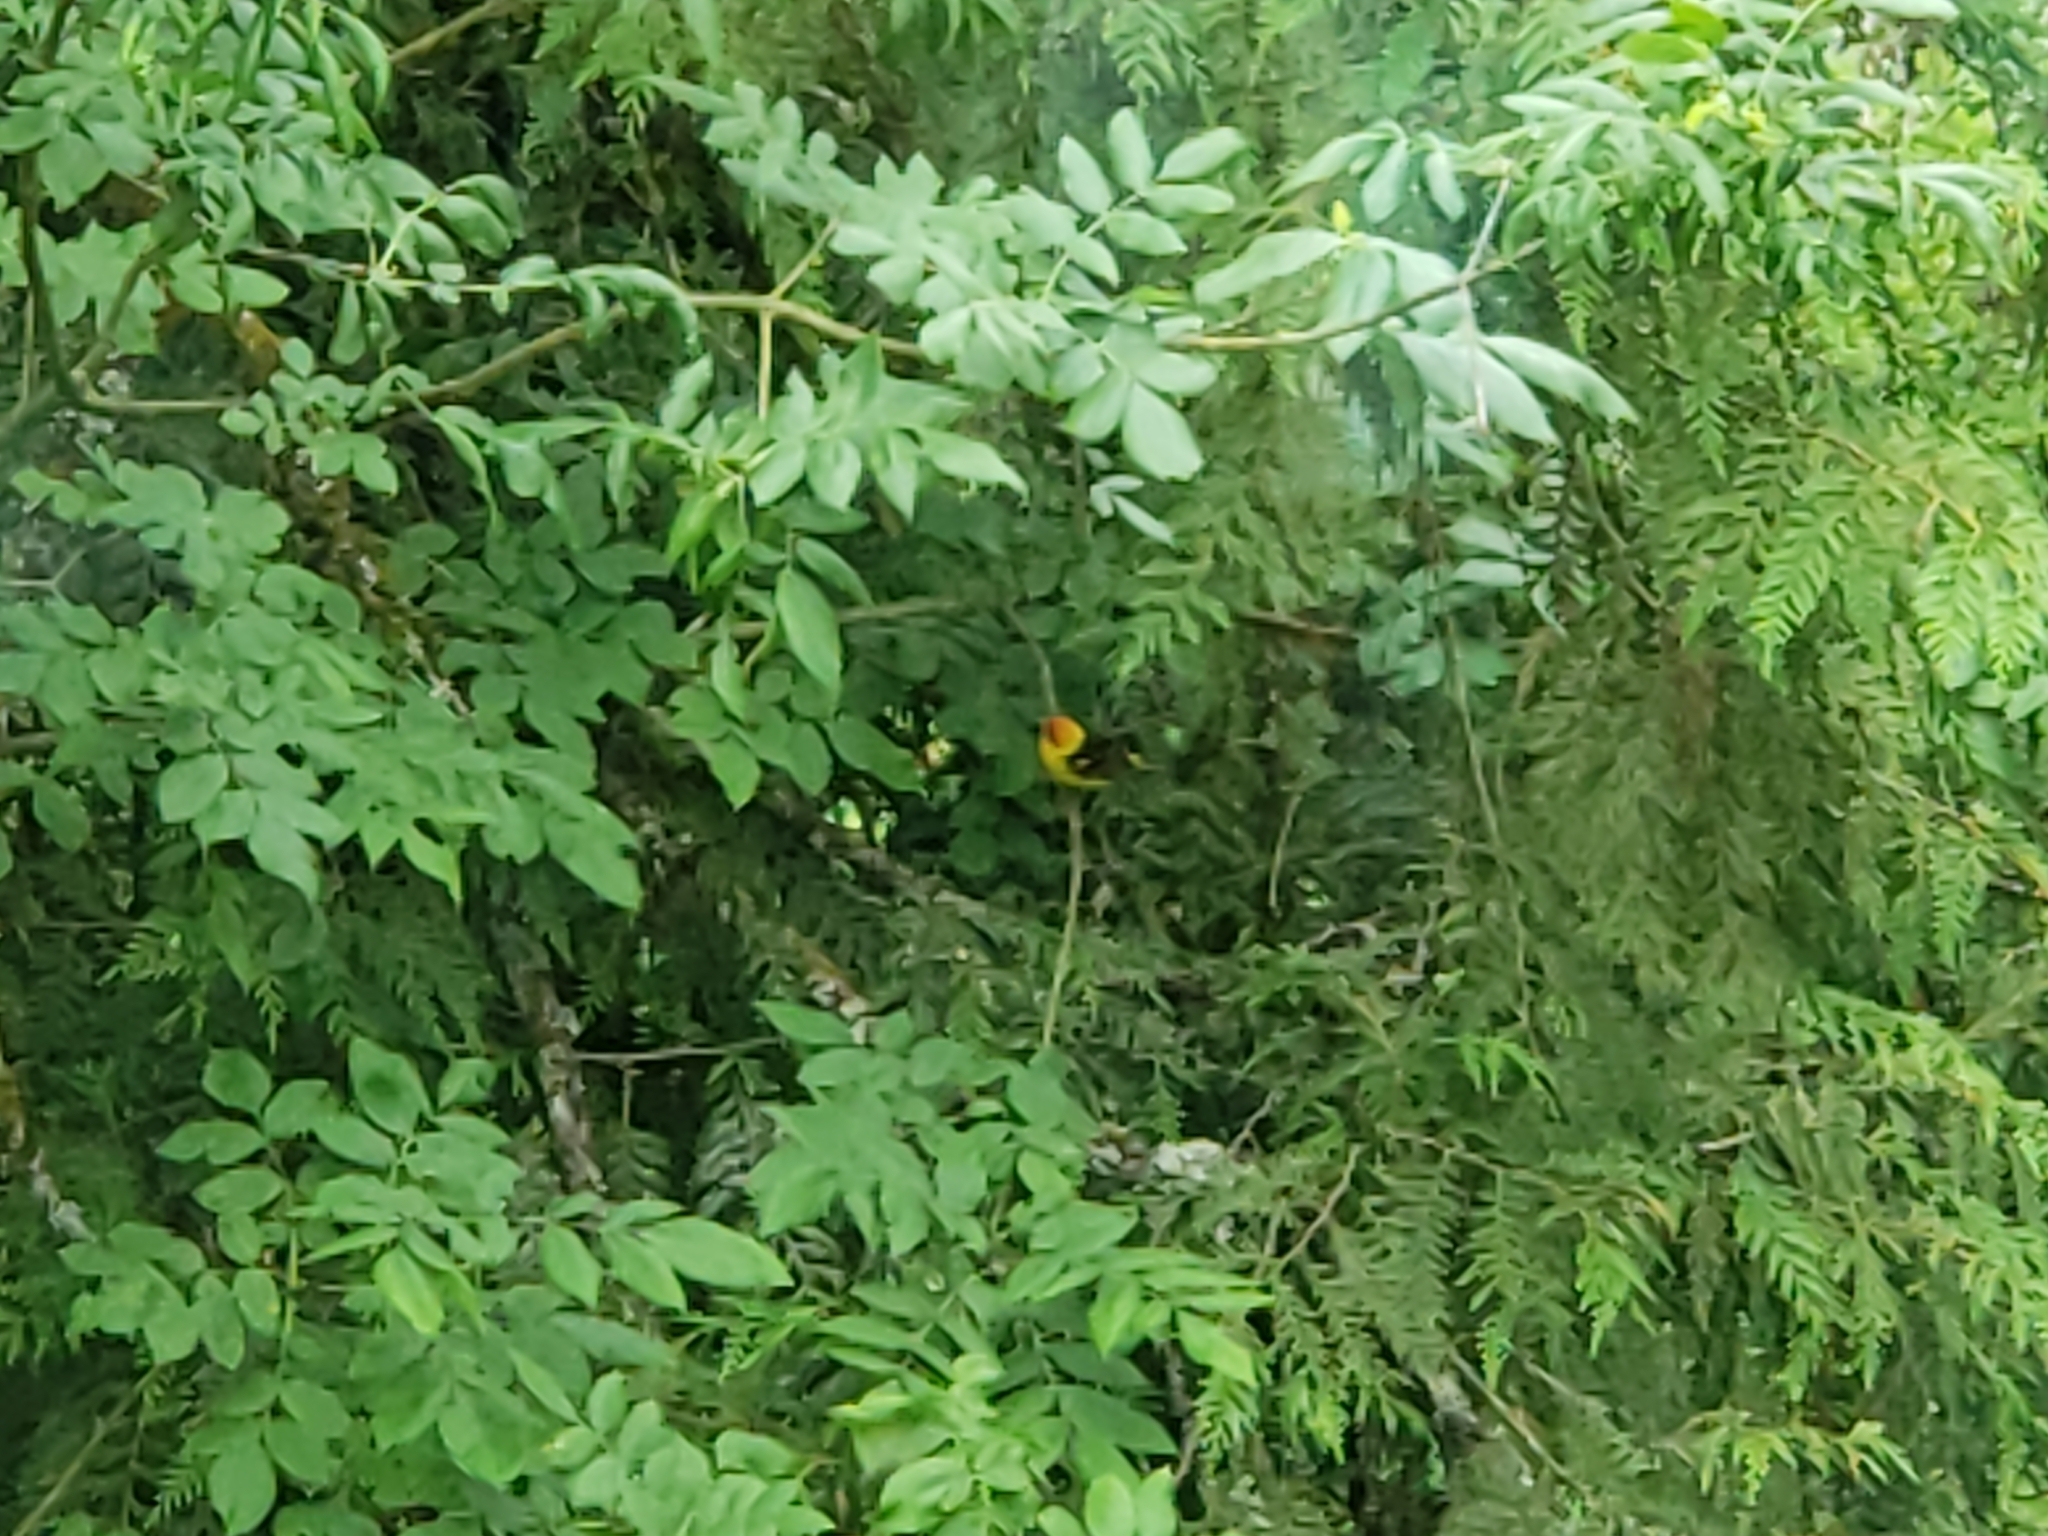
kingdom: Animalia
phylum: Chordata
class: Aves
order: Passeriformes
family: Cardinalidae
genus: Piranga
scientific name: Piranga ludoviciana
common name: Western tanager
